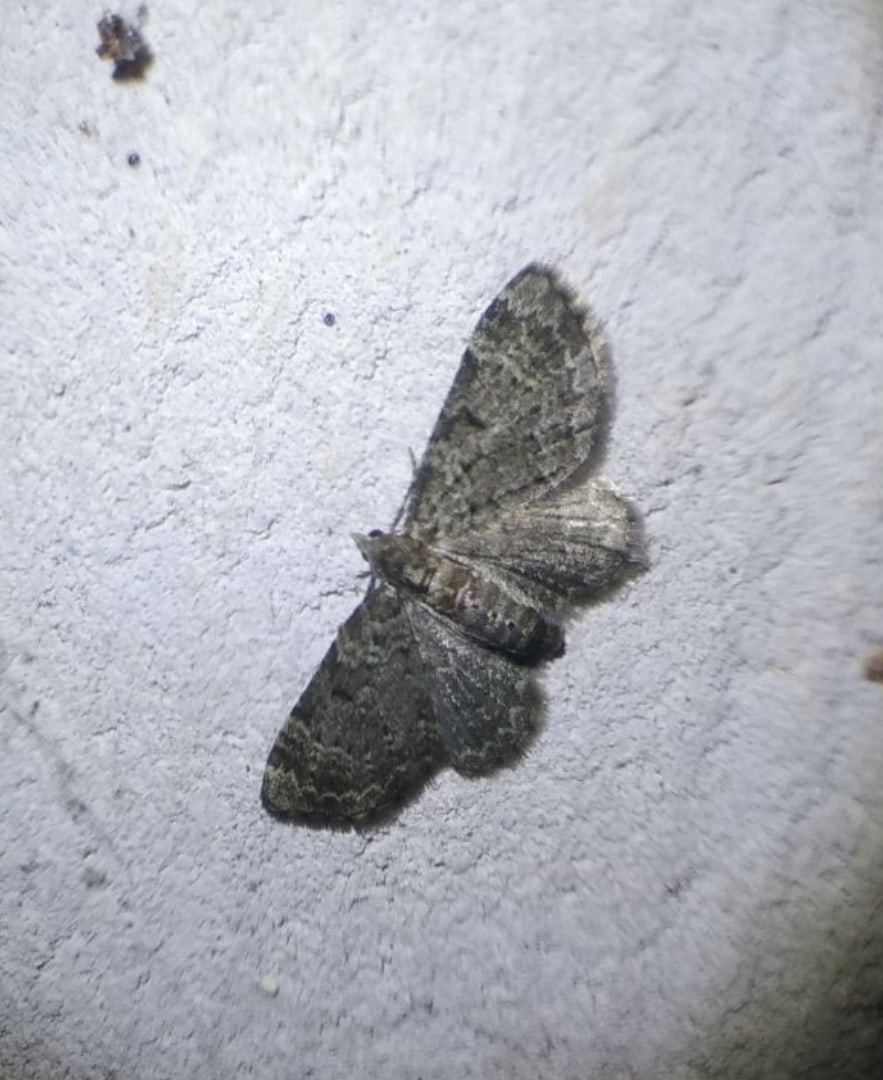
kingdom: Animalia
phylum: Arthropoda
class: Insecta
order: Lepidoptera
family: Geometridae
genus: Pasiphila
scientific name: Pasiphila rectangulata
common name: Green pug
